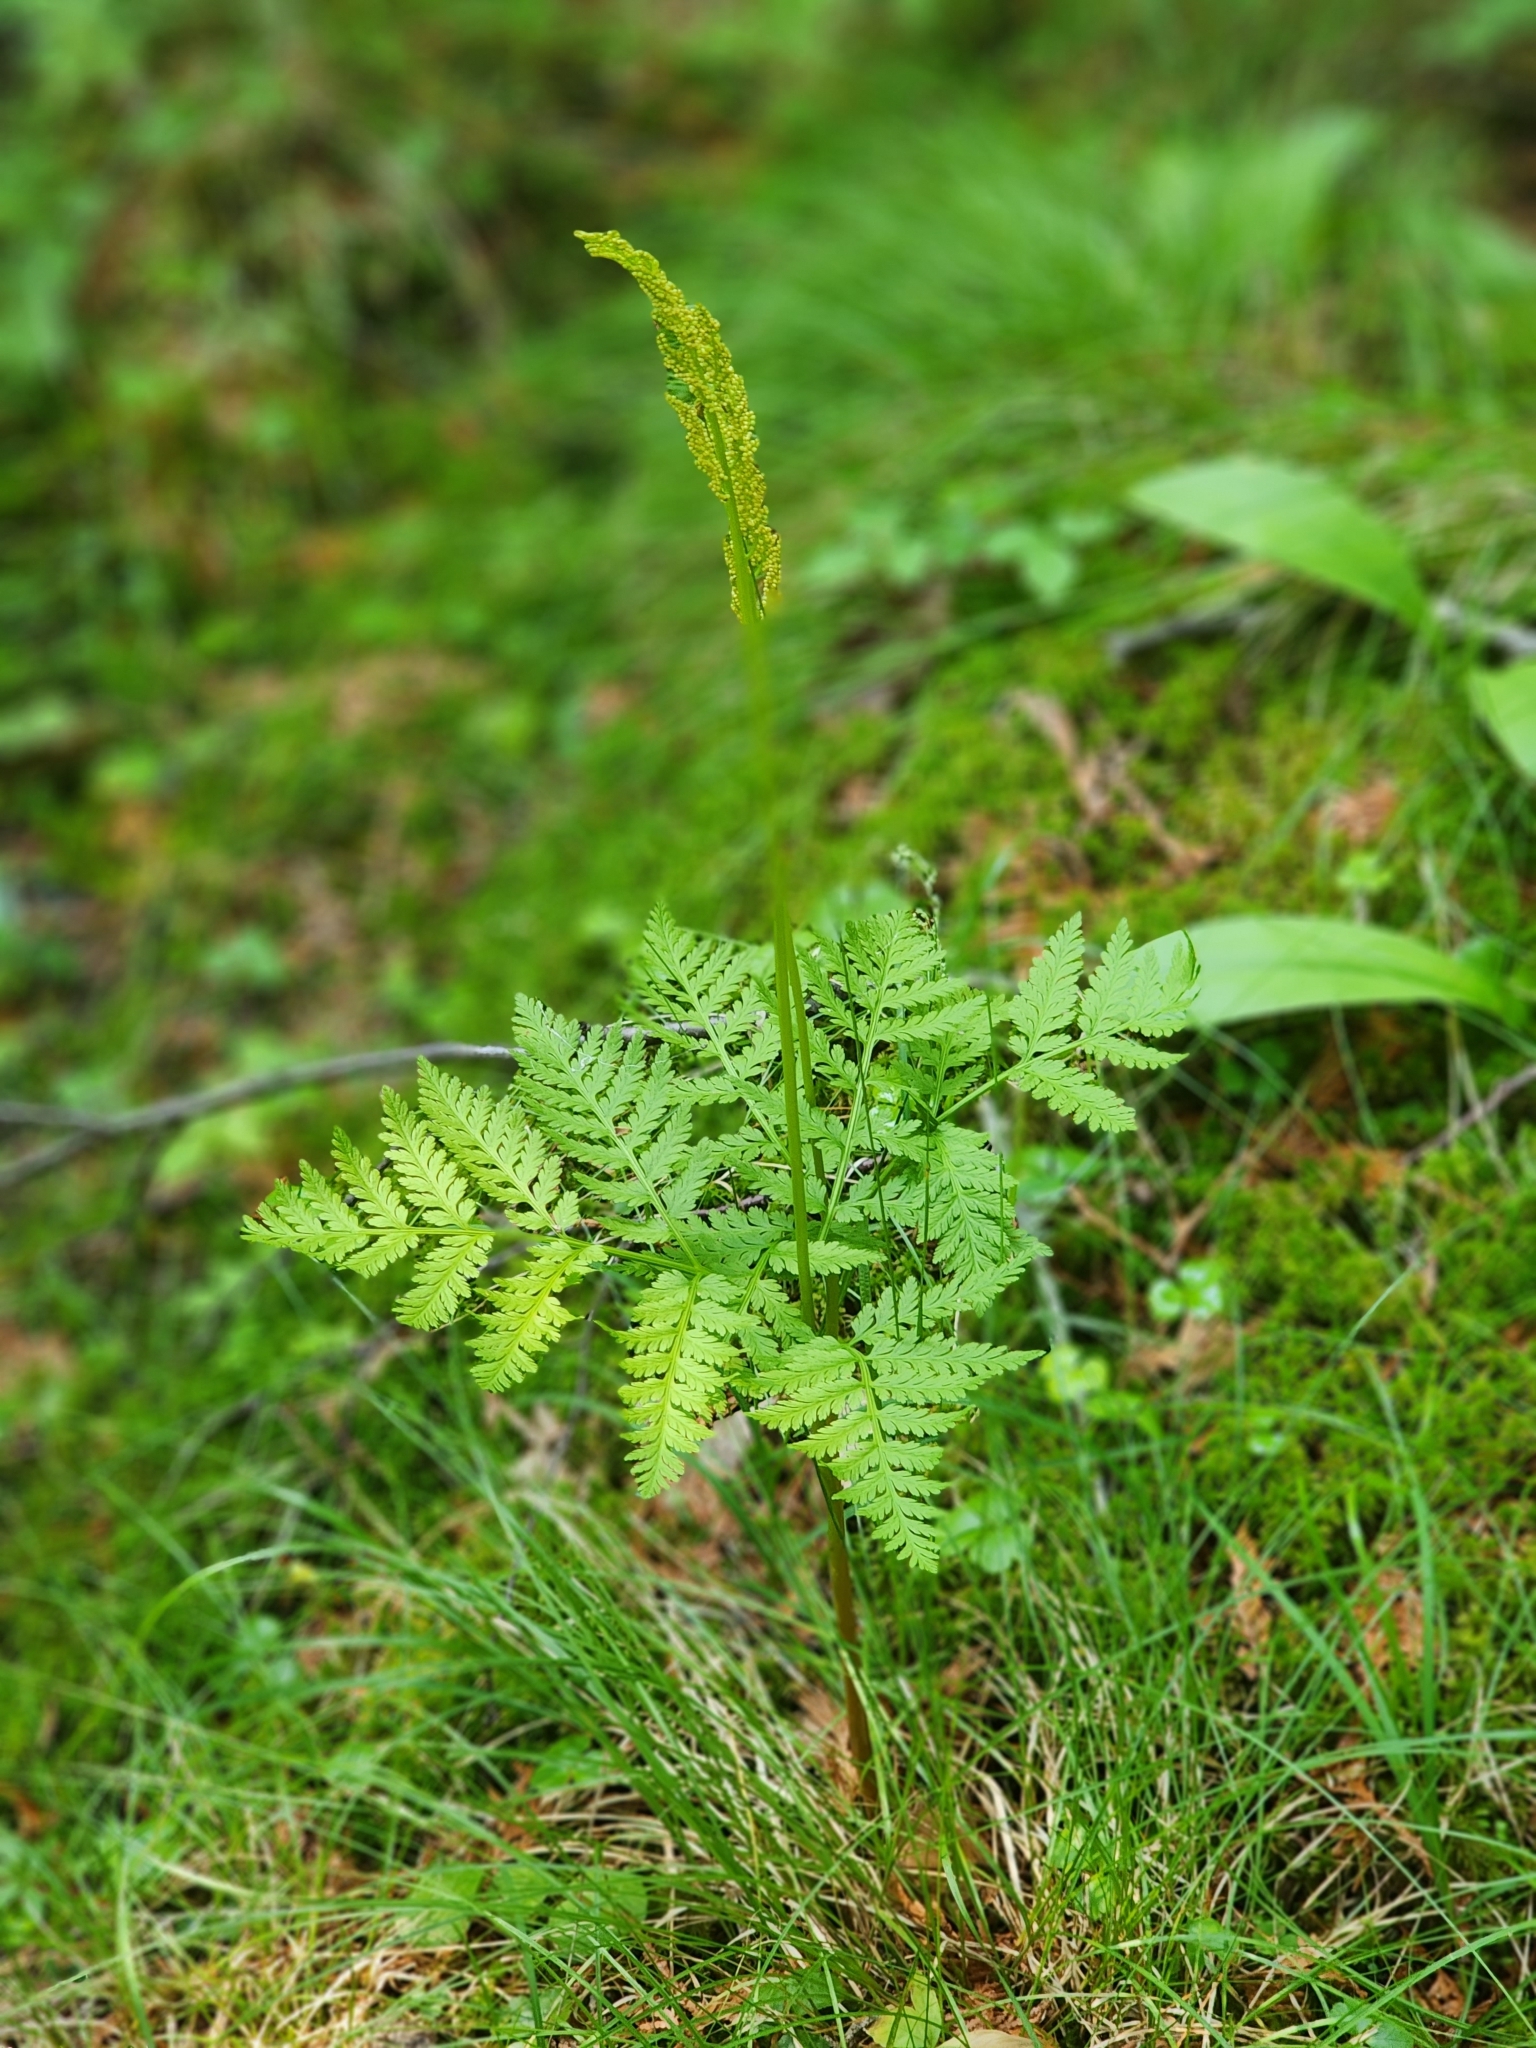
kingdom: Plantae
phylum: Tracheophyta
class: Polypodiopsida
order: Ophioglossales
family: Ophioglossaceae
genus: Botrypus
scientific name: Botrypus virginianus
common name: Common grapefern
